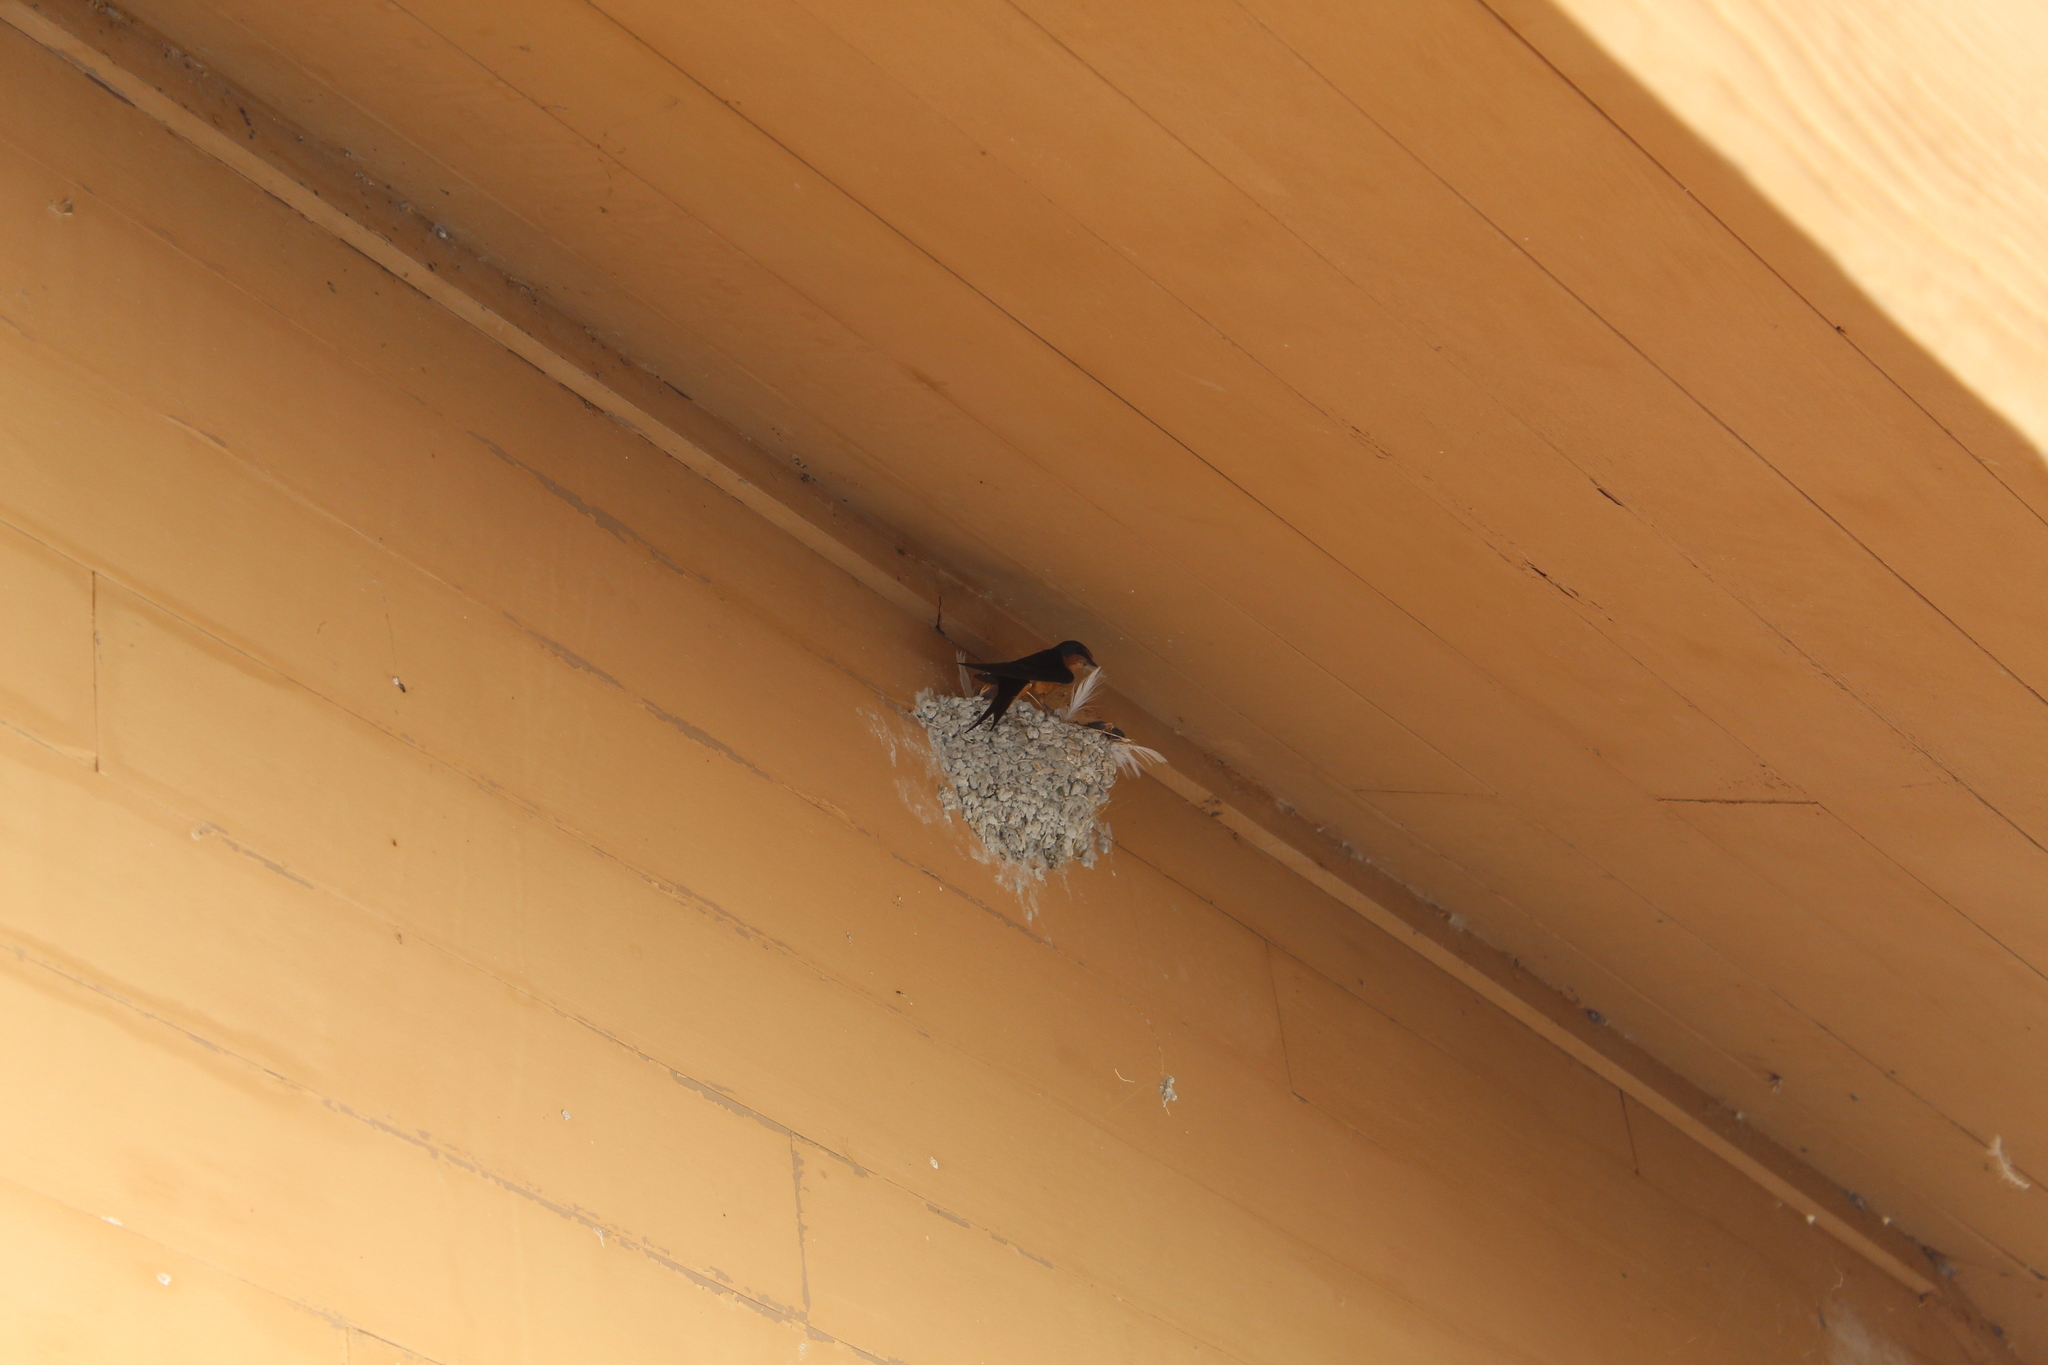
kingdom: Animalia
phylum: Chordata
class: Aves
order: Passeriformes
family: Hirundinidae
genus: Hirundo
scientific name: Hirundo rustica
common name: Barn swallow
